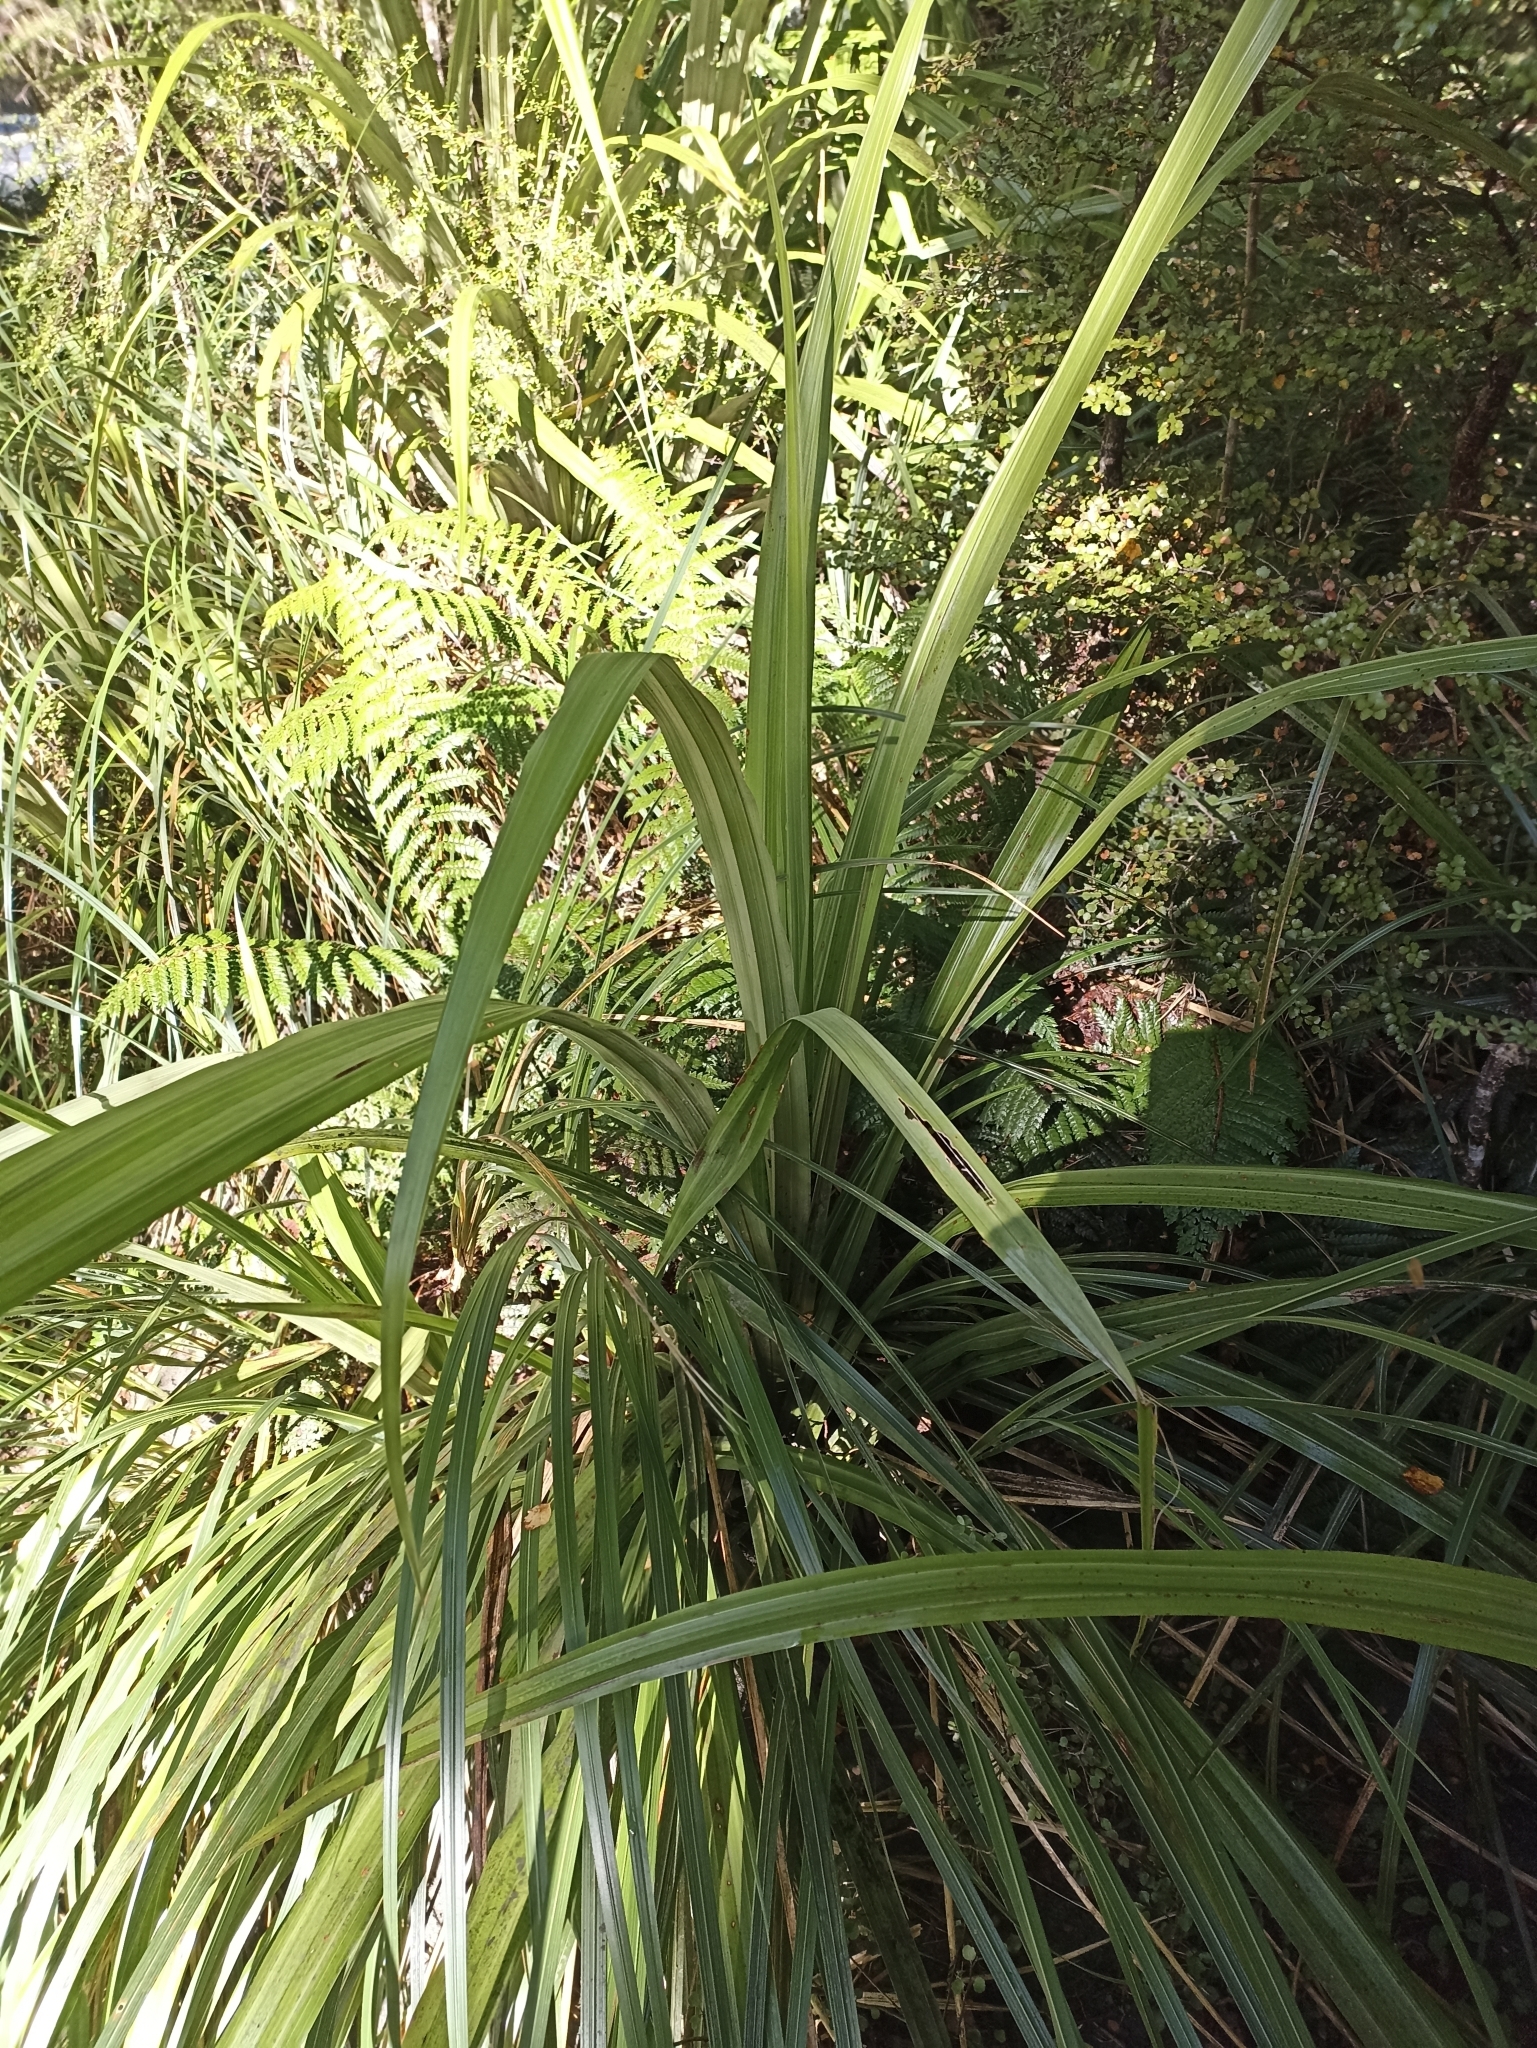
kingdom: Plantae
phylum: Tracheophyta
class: Liliopsida
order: Asparagales
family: Asteliaceae
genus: Astelia
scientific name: Astelia fragrans
